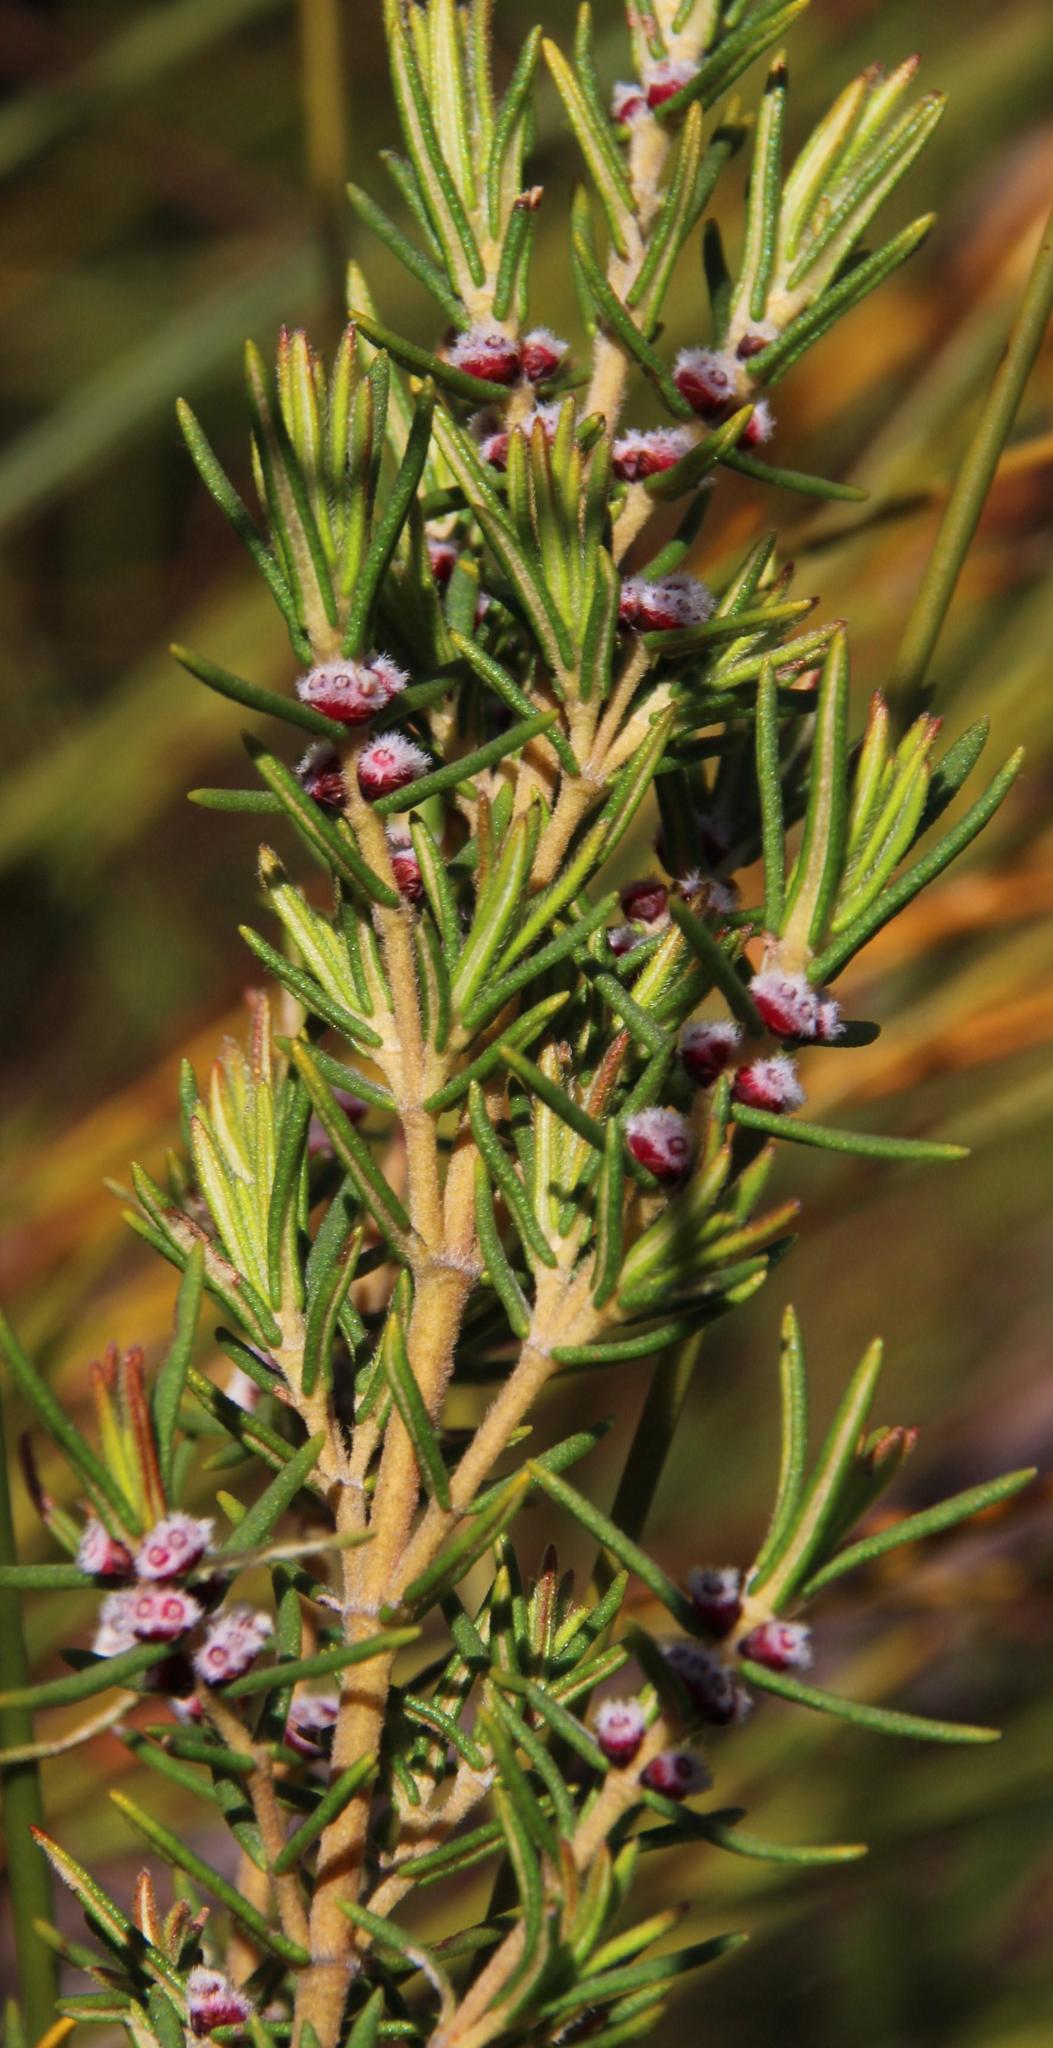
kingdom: Plantae
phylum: Tracheophyta
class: Magnoliopsida
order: Cornales
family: Grubbiaceae
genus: Grubbia
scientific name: Grubbia rosmarinifolia
